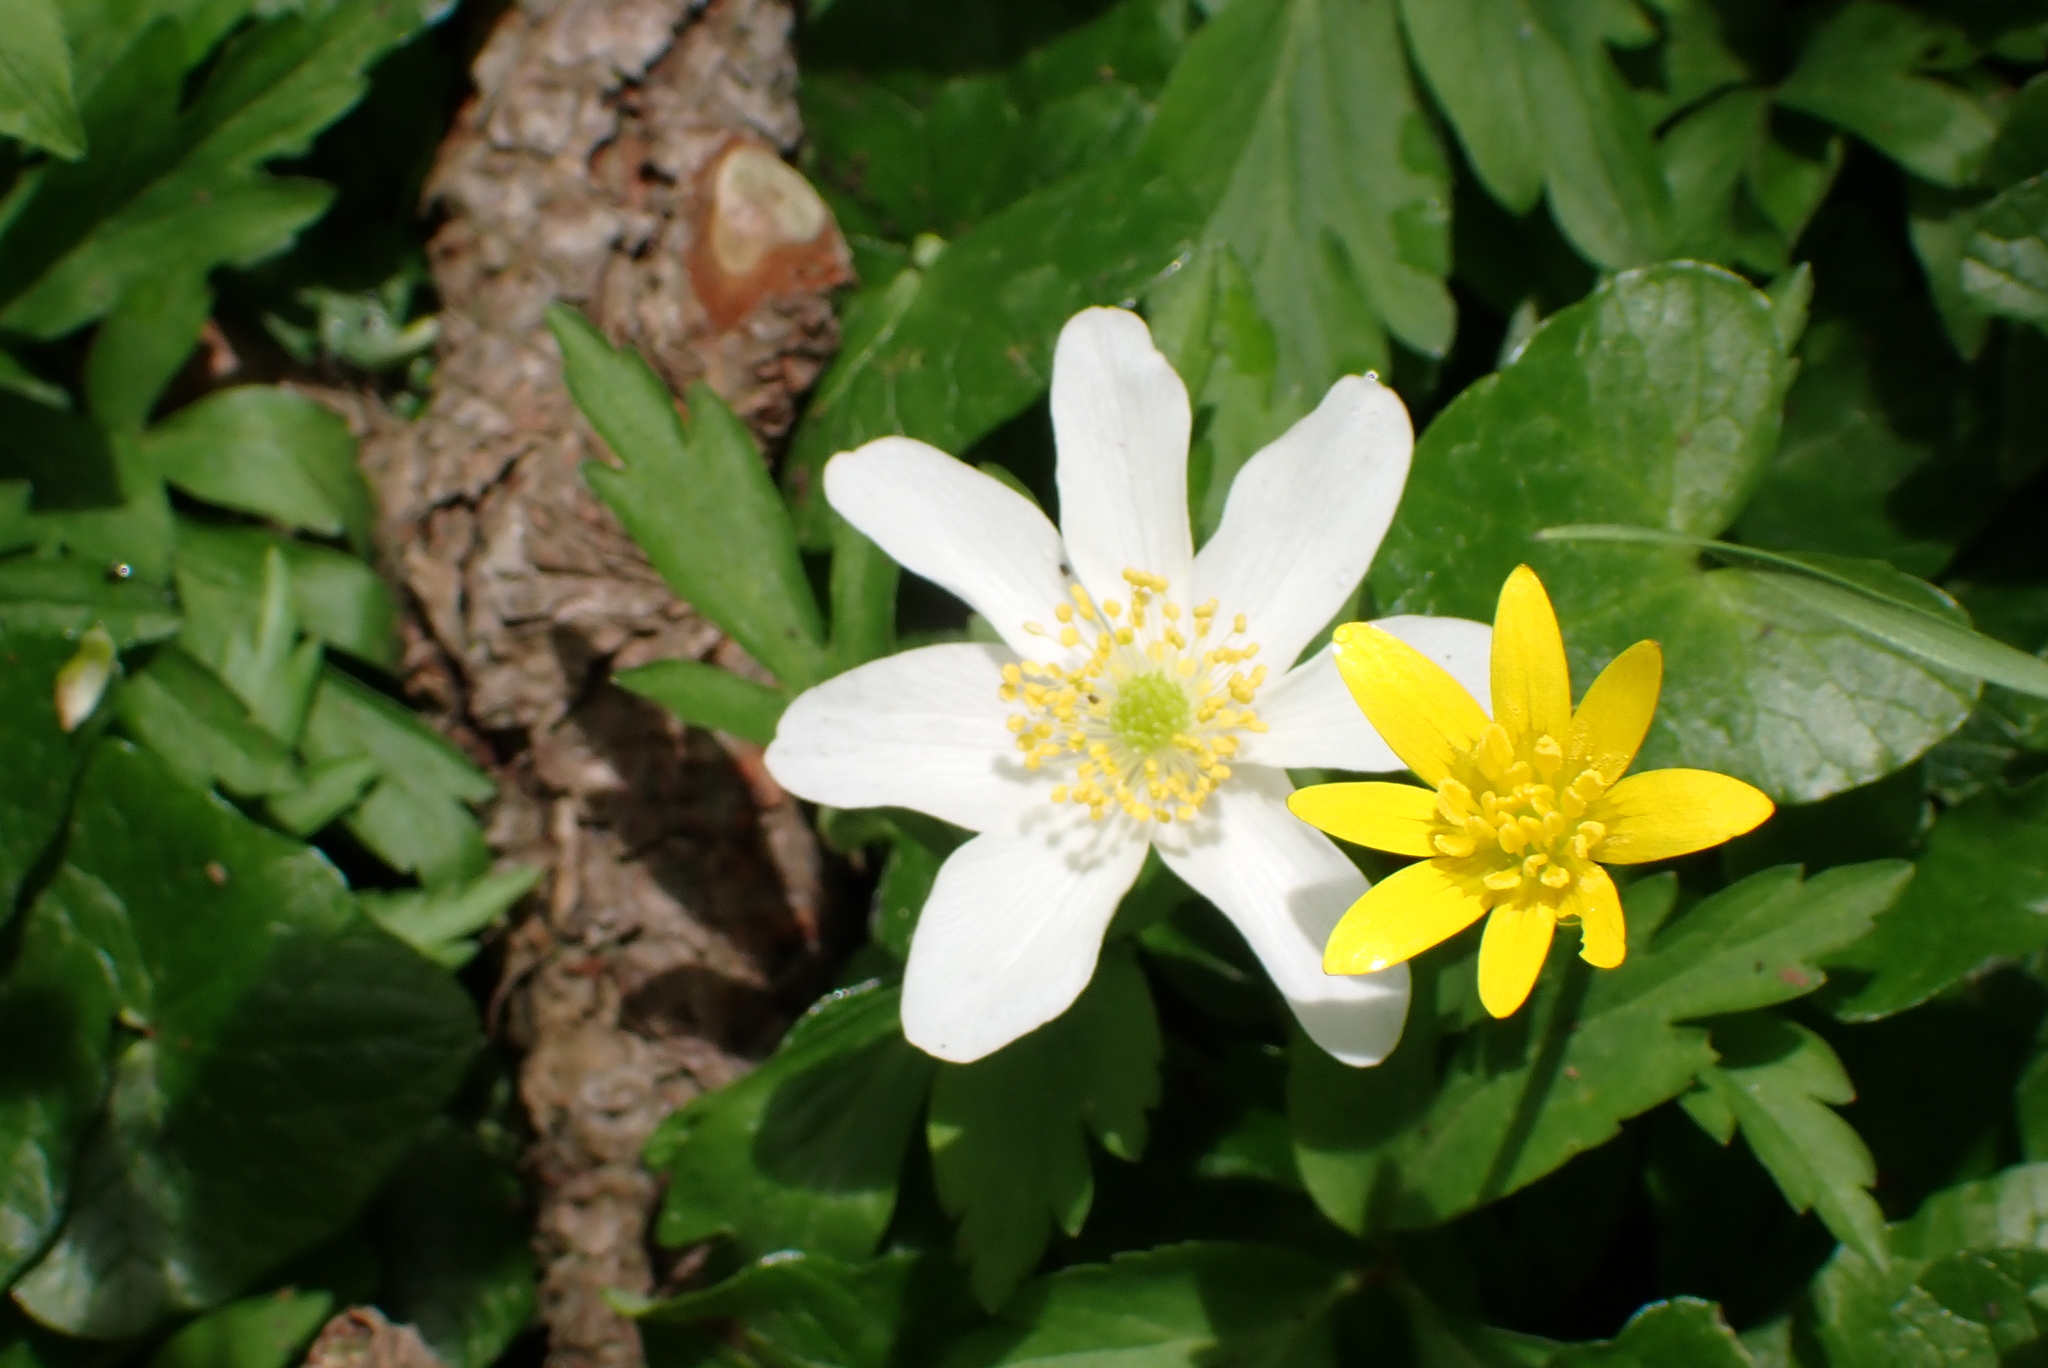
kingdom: Plantae
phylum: Tracheophyta
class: Magnoliopsida
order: Ranunculales
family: Ranunculaceae
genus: Anemone
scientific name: Anemone nemorosa
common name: Wood anemone
